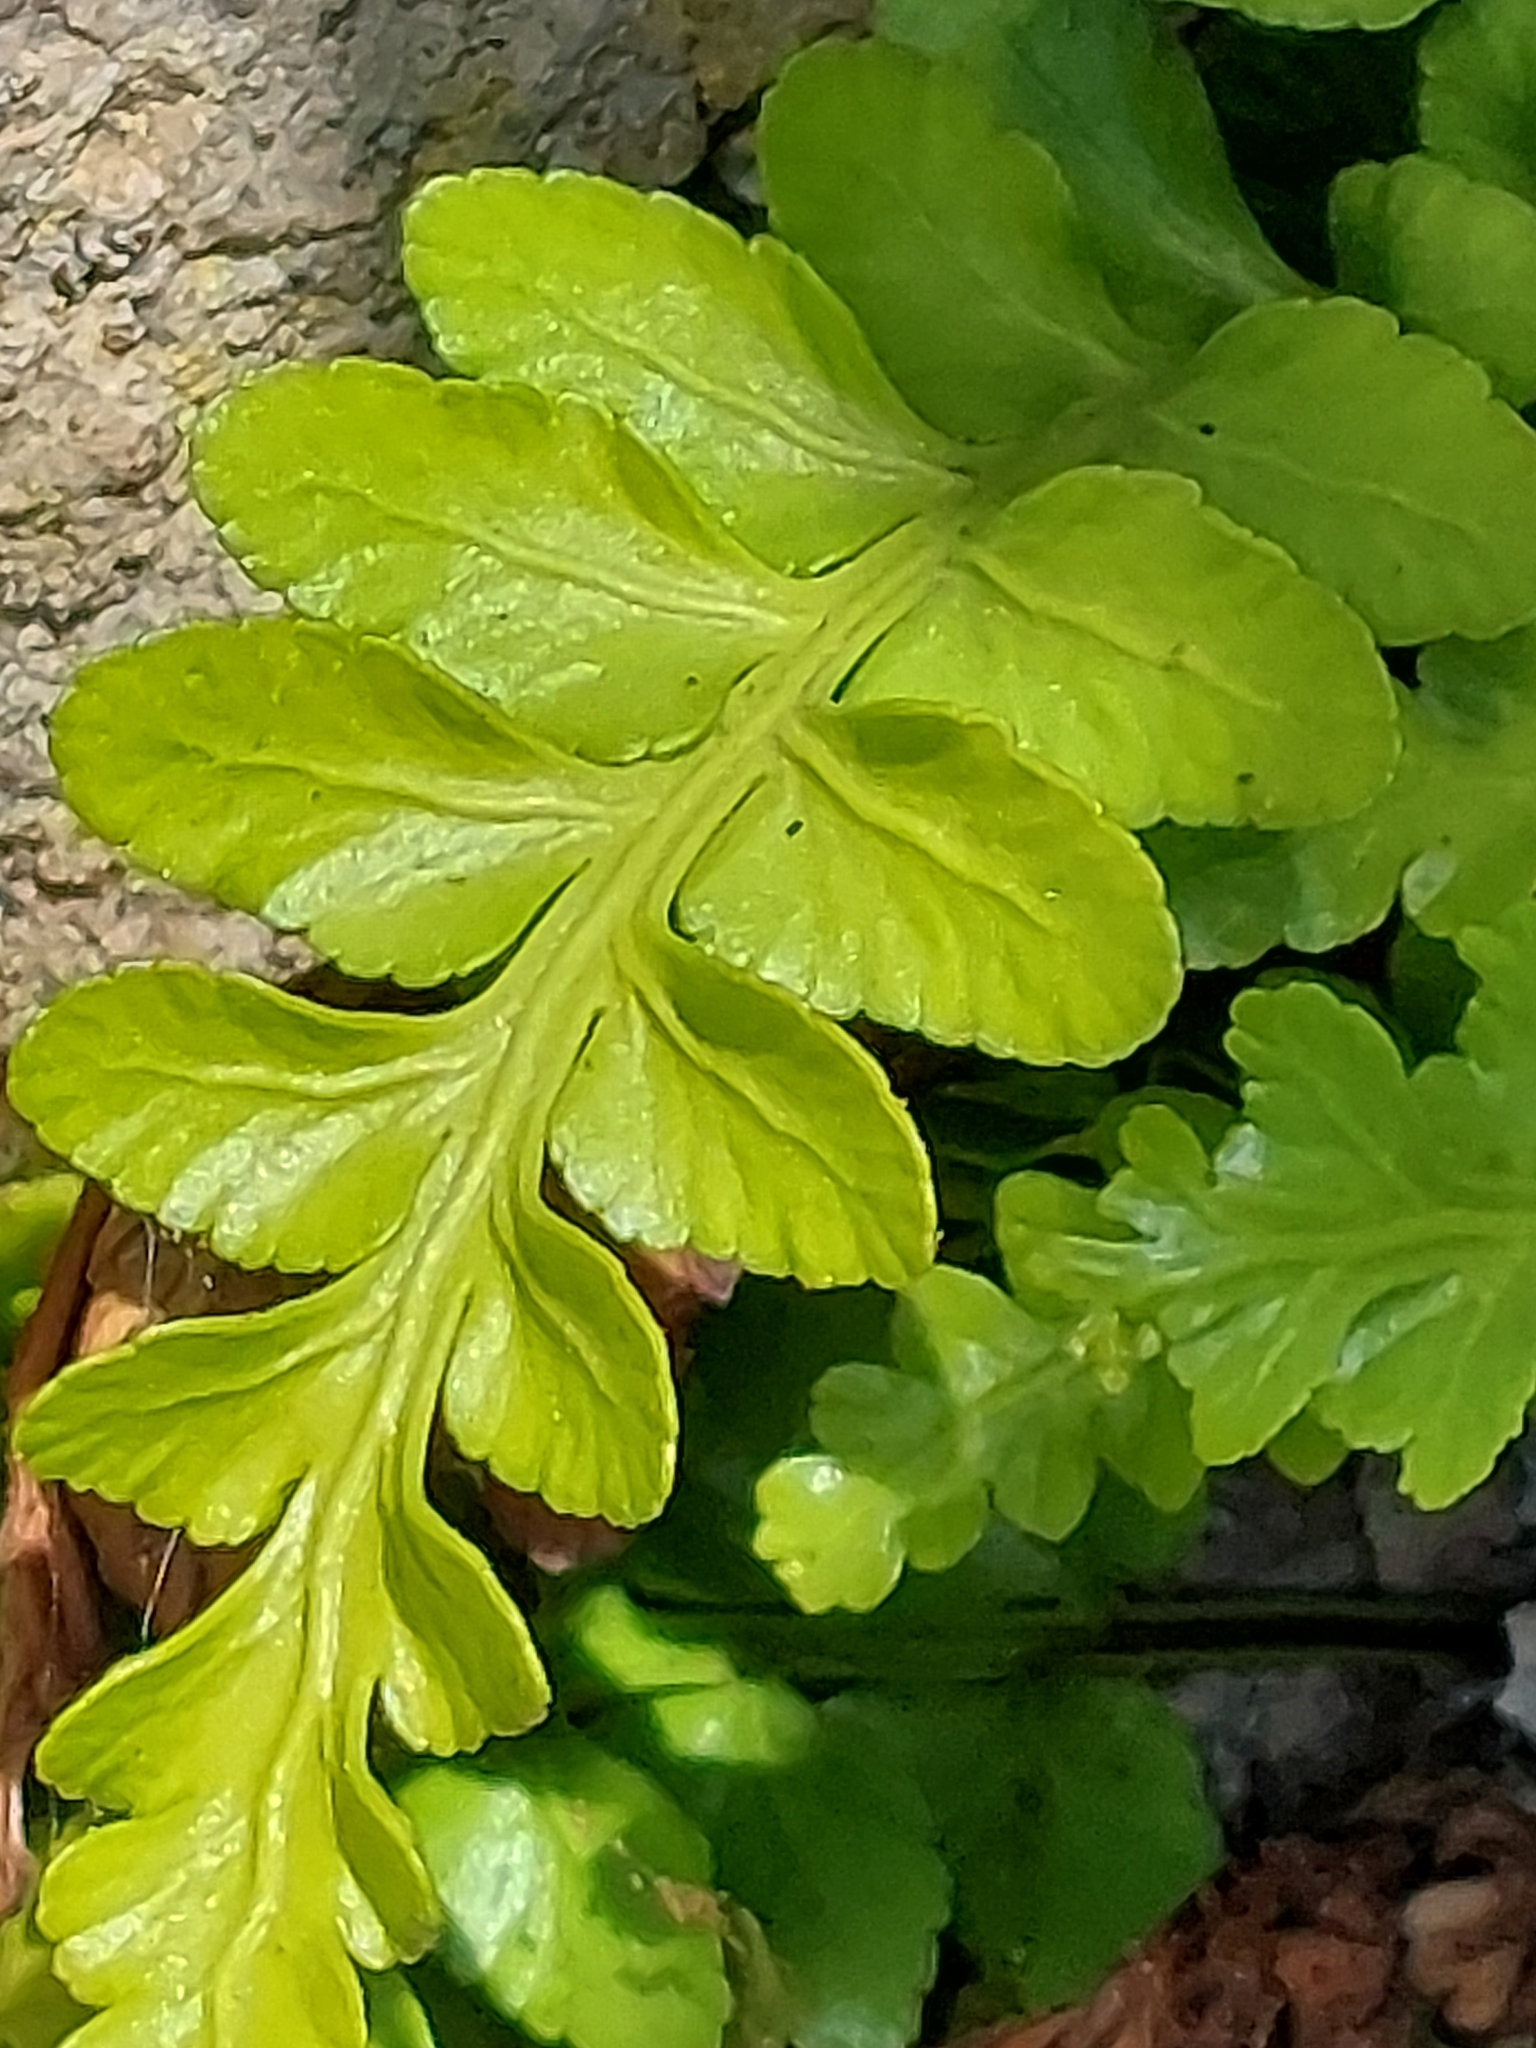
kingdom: Plantae
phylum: Tracheophyta
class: Polypodiopsida
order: Polypodiales
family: Aspleniaceae
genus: Asplenium
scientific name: Asplenium marinum
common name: Sea spleenwort
